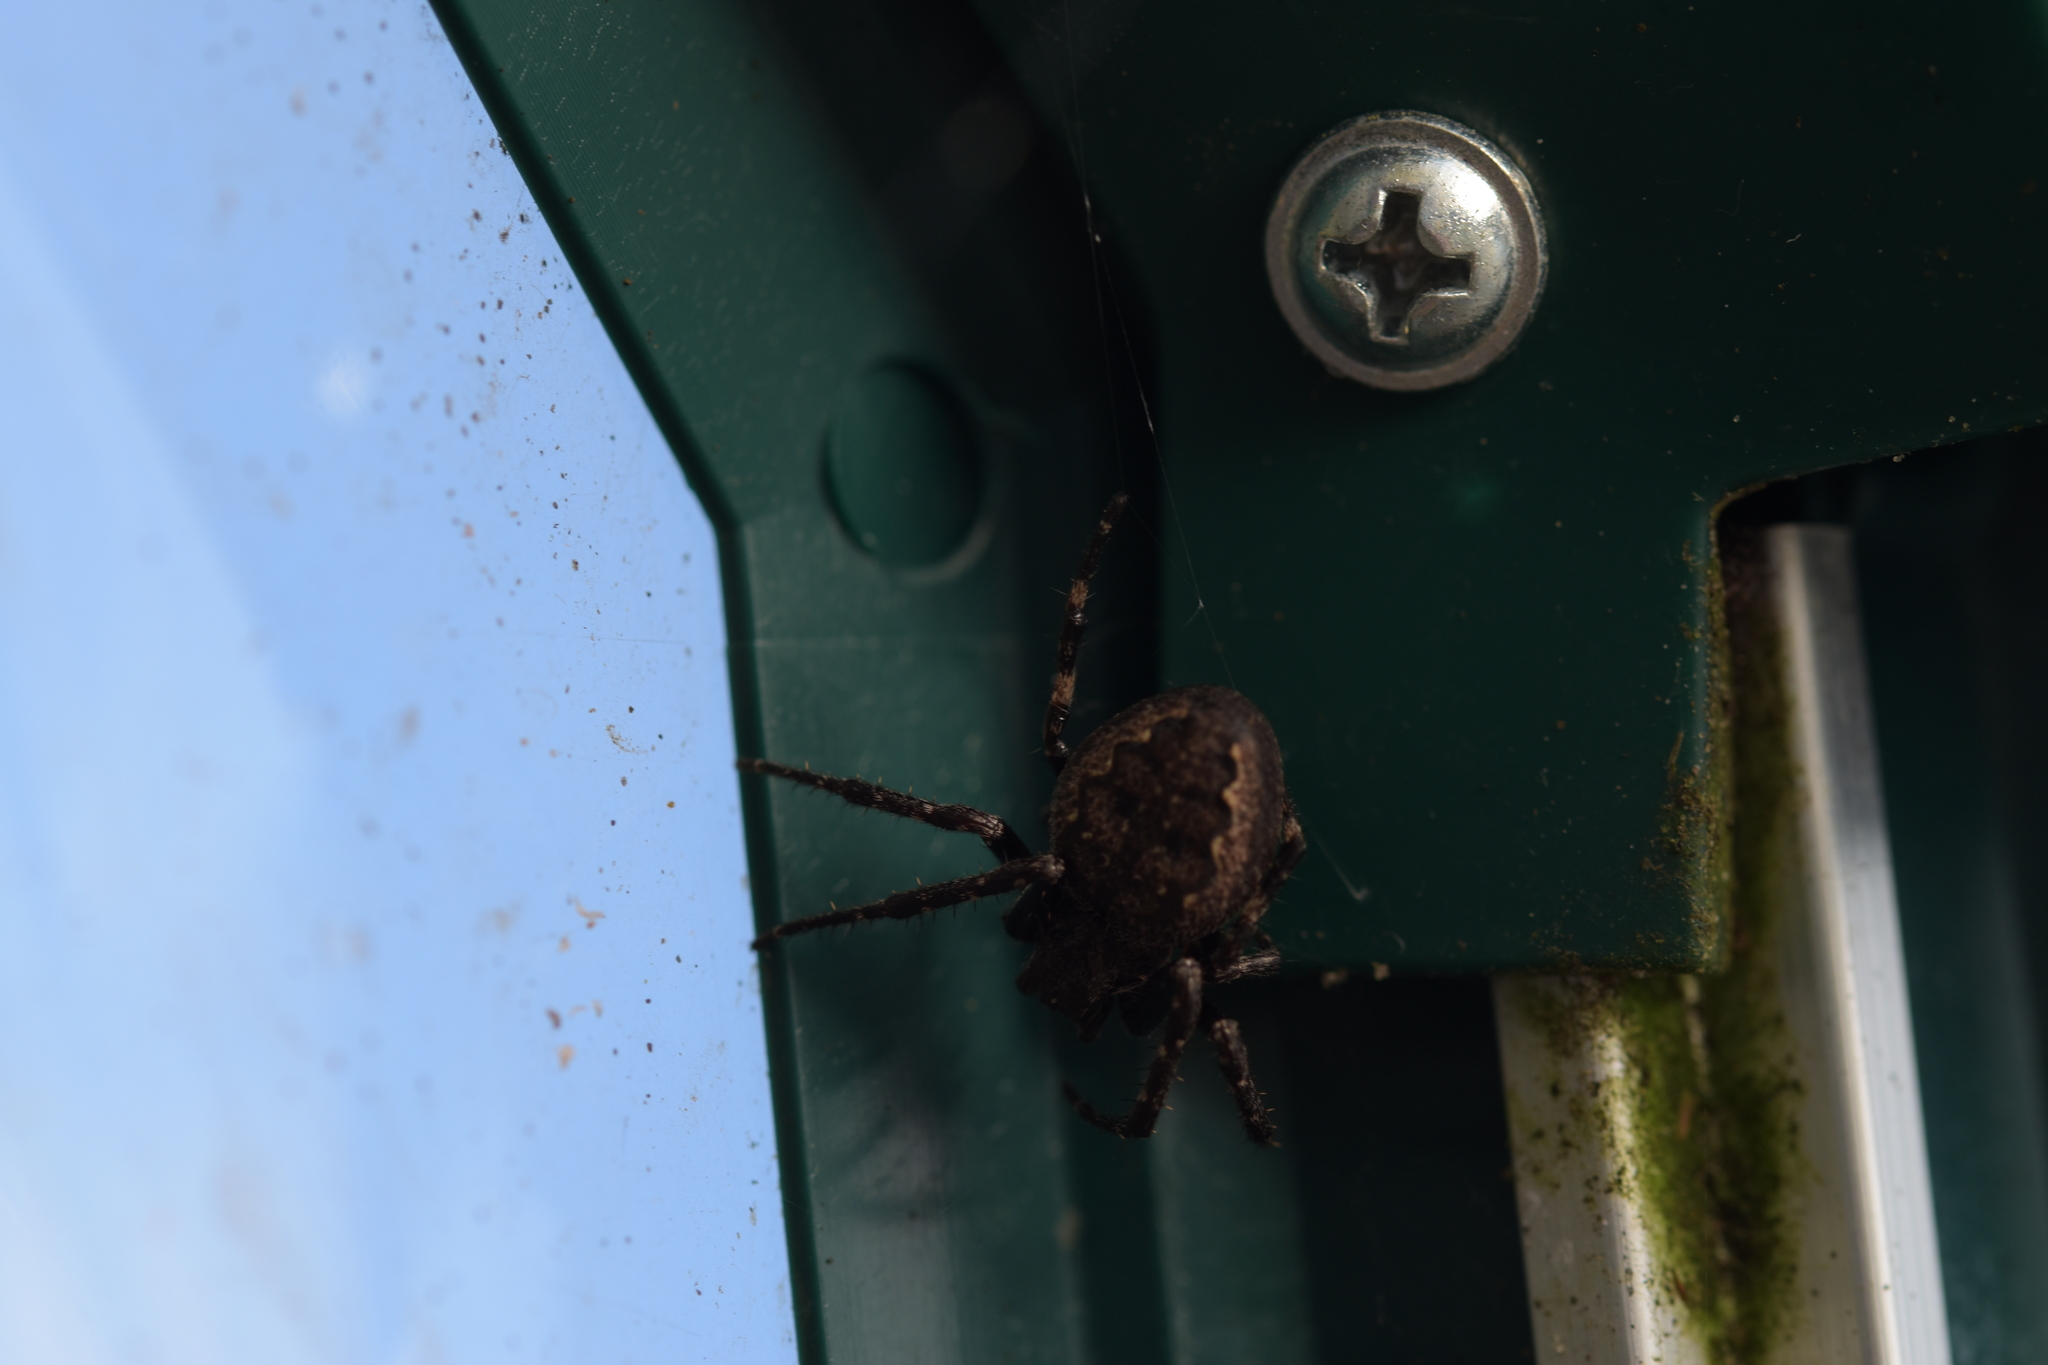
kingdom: Animalia
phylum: Arthropoda
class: Arachnida
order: Araneae
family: Araneidae
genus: Nuctenea
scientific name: Nuctenea umbratica
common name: Toad spider
